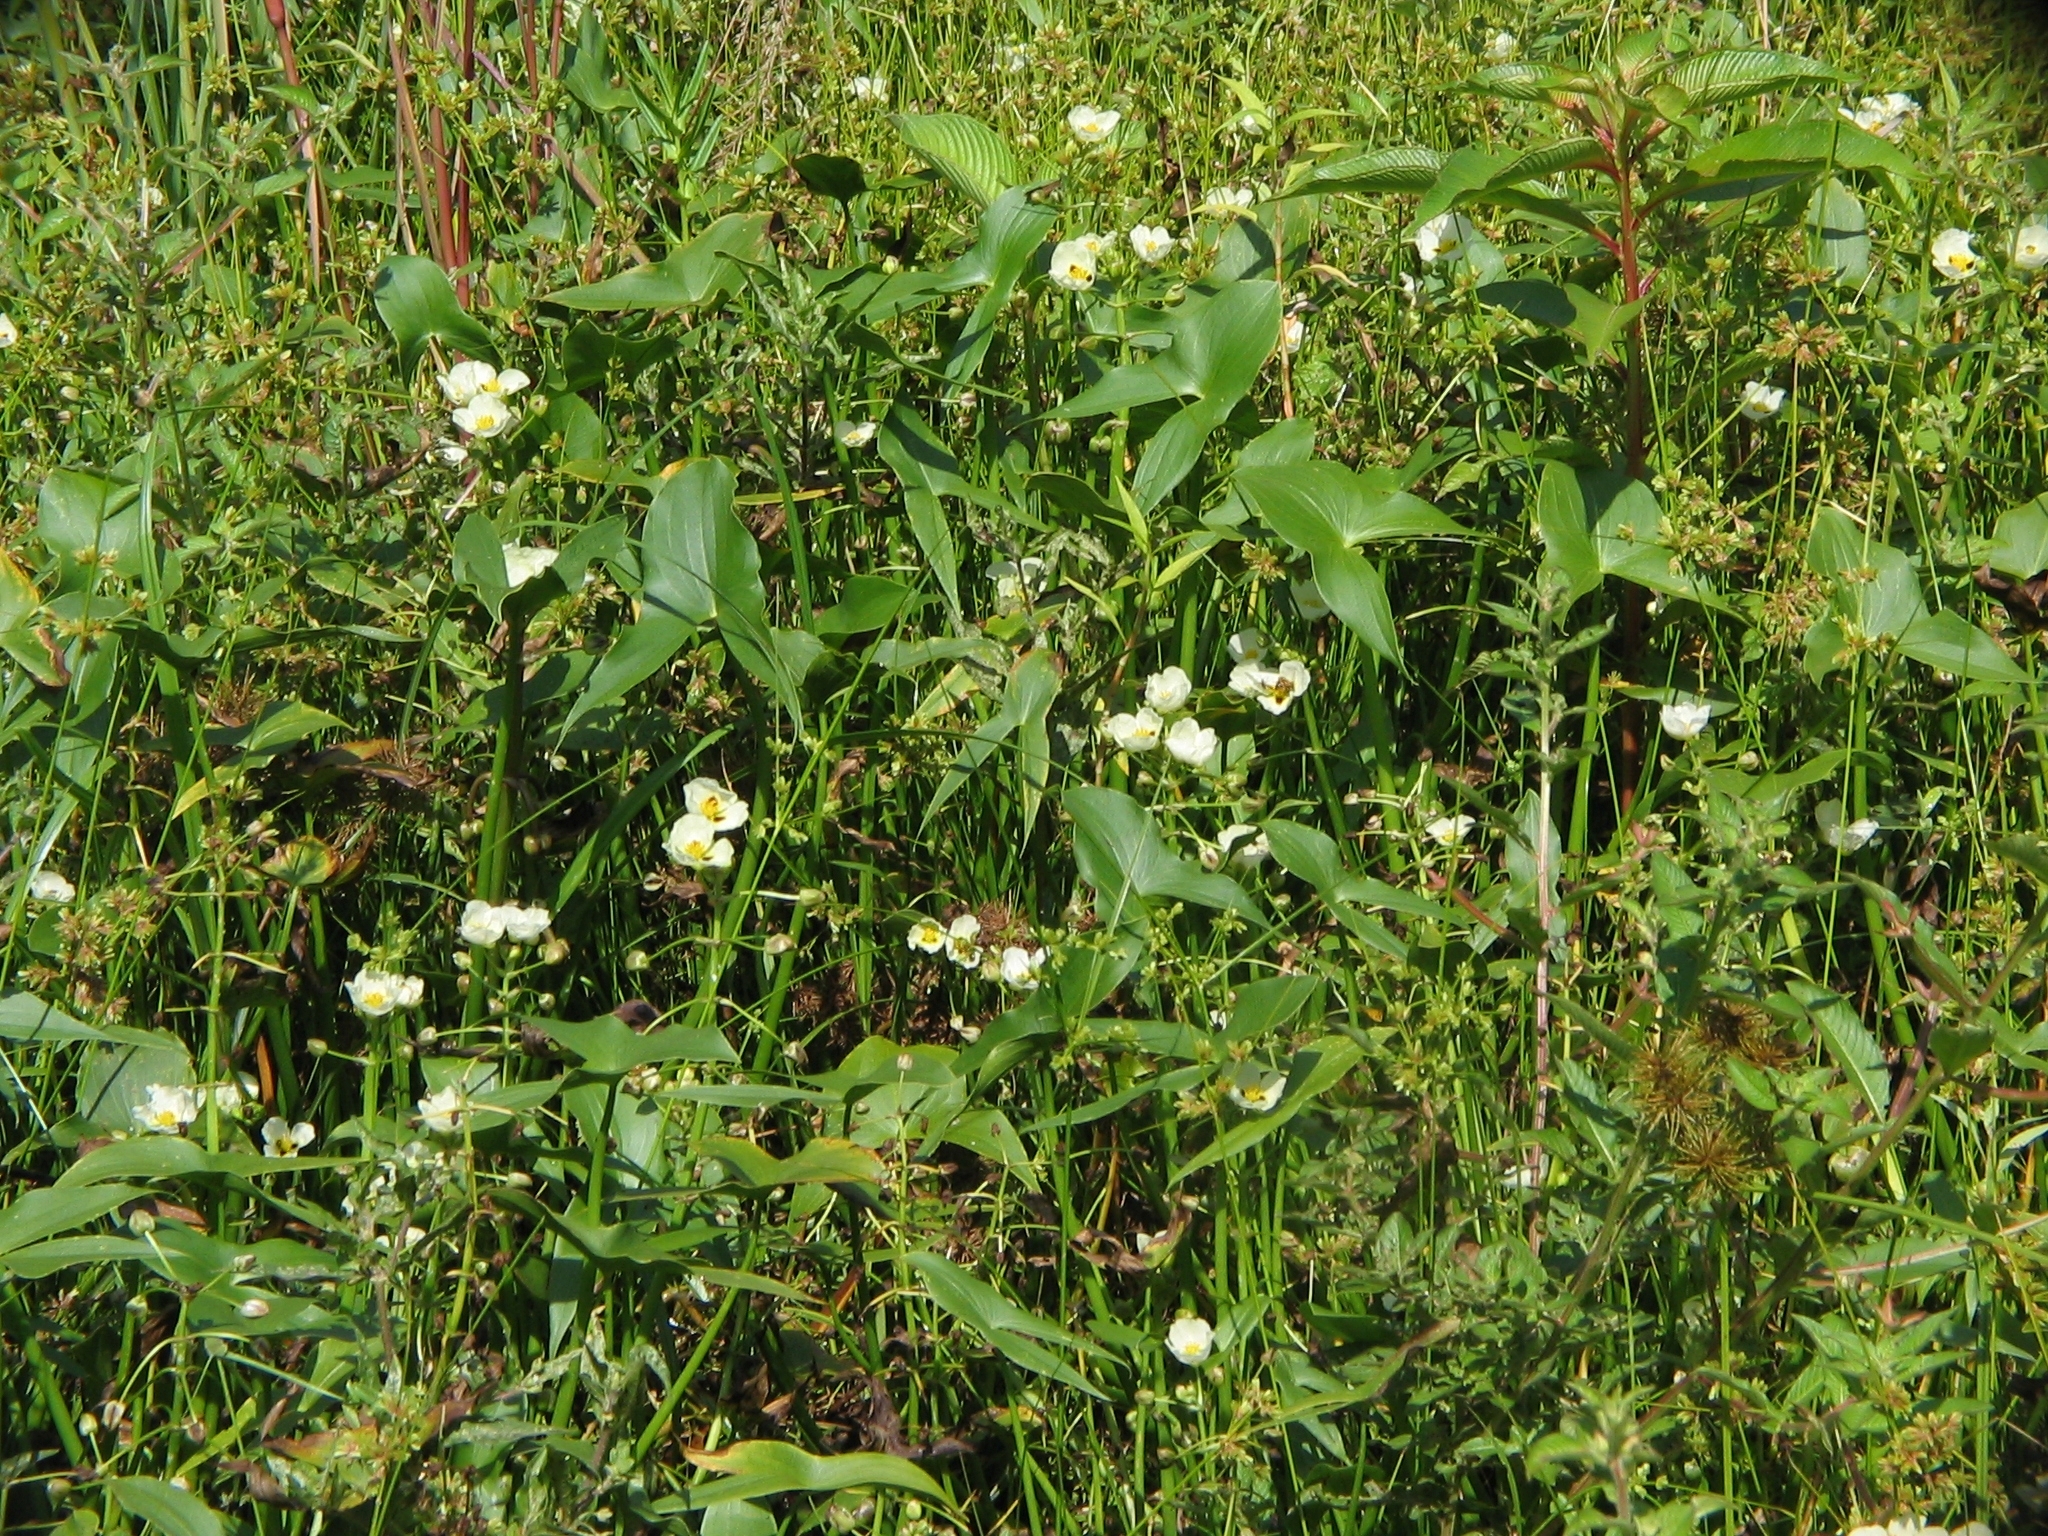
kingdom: Plantae
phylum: Tracheophyta
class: Liliopsida
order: Alismatales
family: Alismataceae
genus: Sagittaria
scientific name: Sagittaria montevidensis
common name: Giant arrowhead
